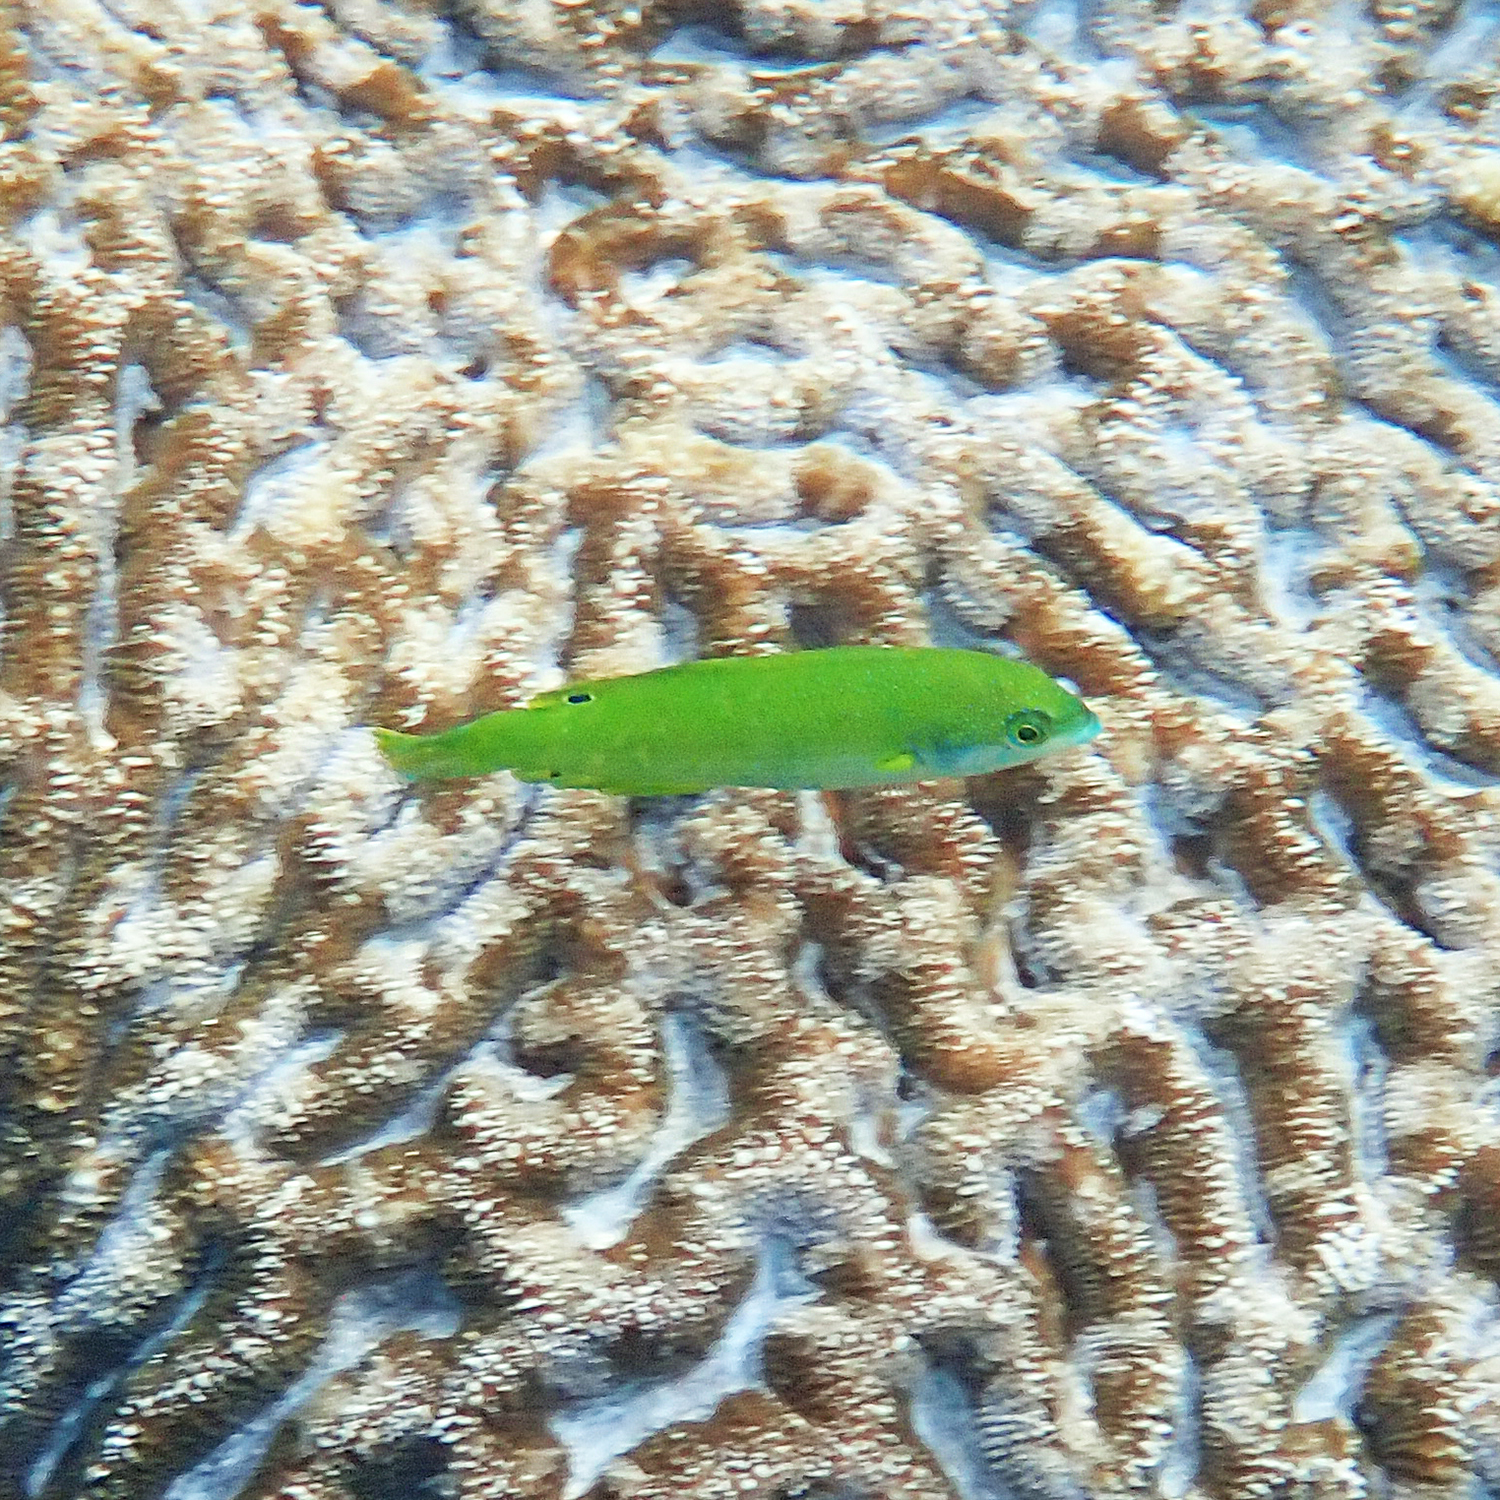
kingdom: Animalia
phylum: Chordata
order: Perciformes
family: Labridae
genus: Anampses
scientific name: Anampses elegans
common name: Elegant wrasse
